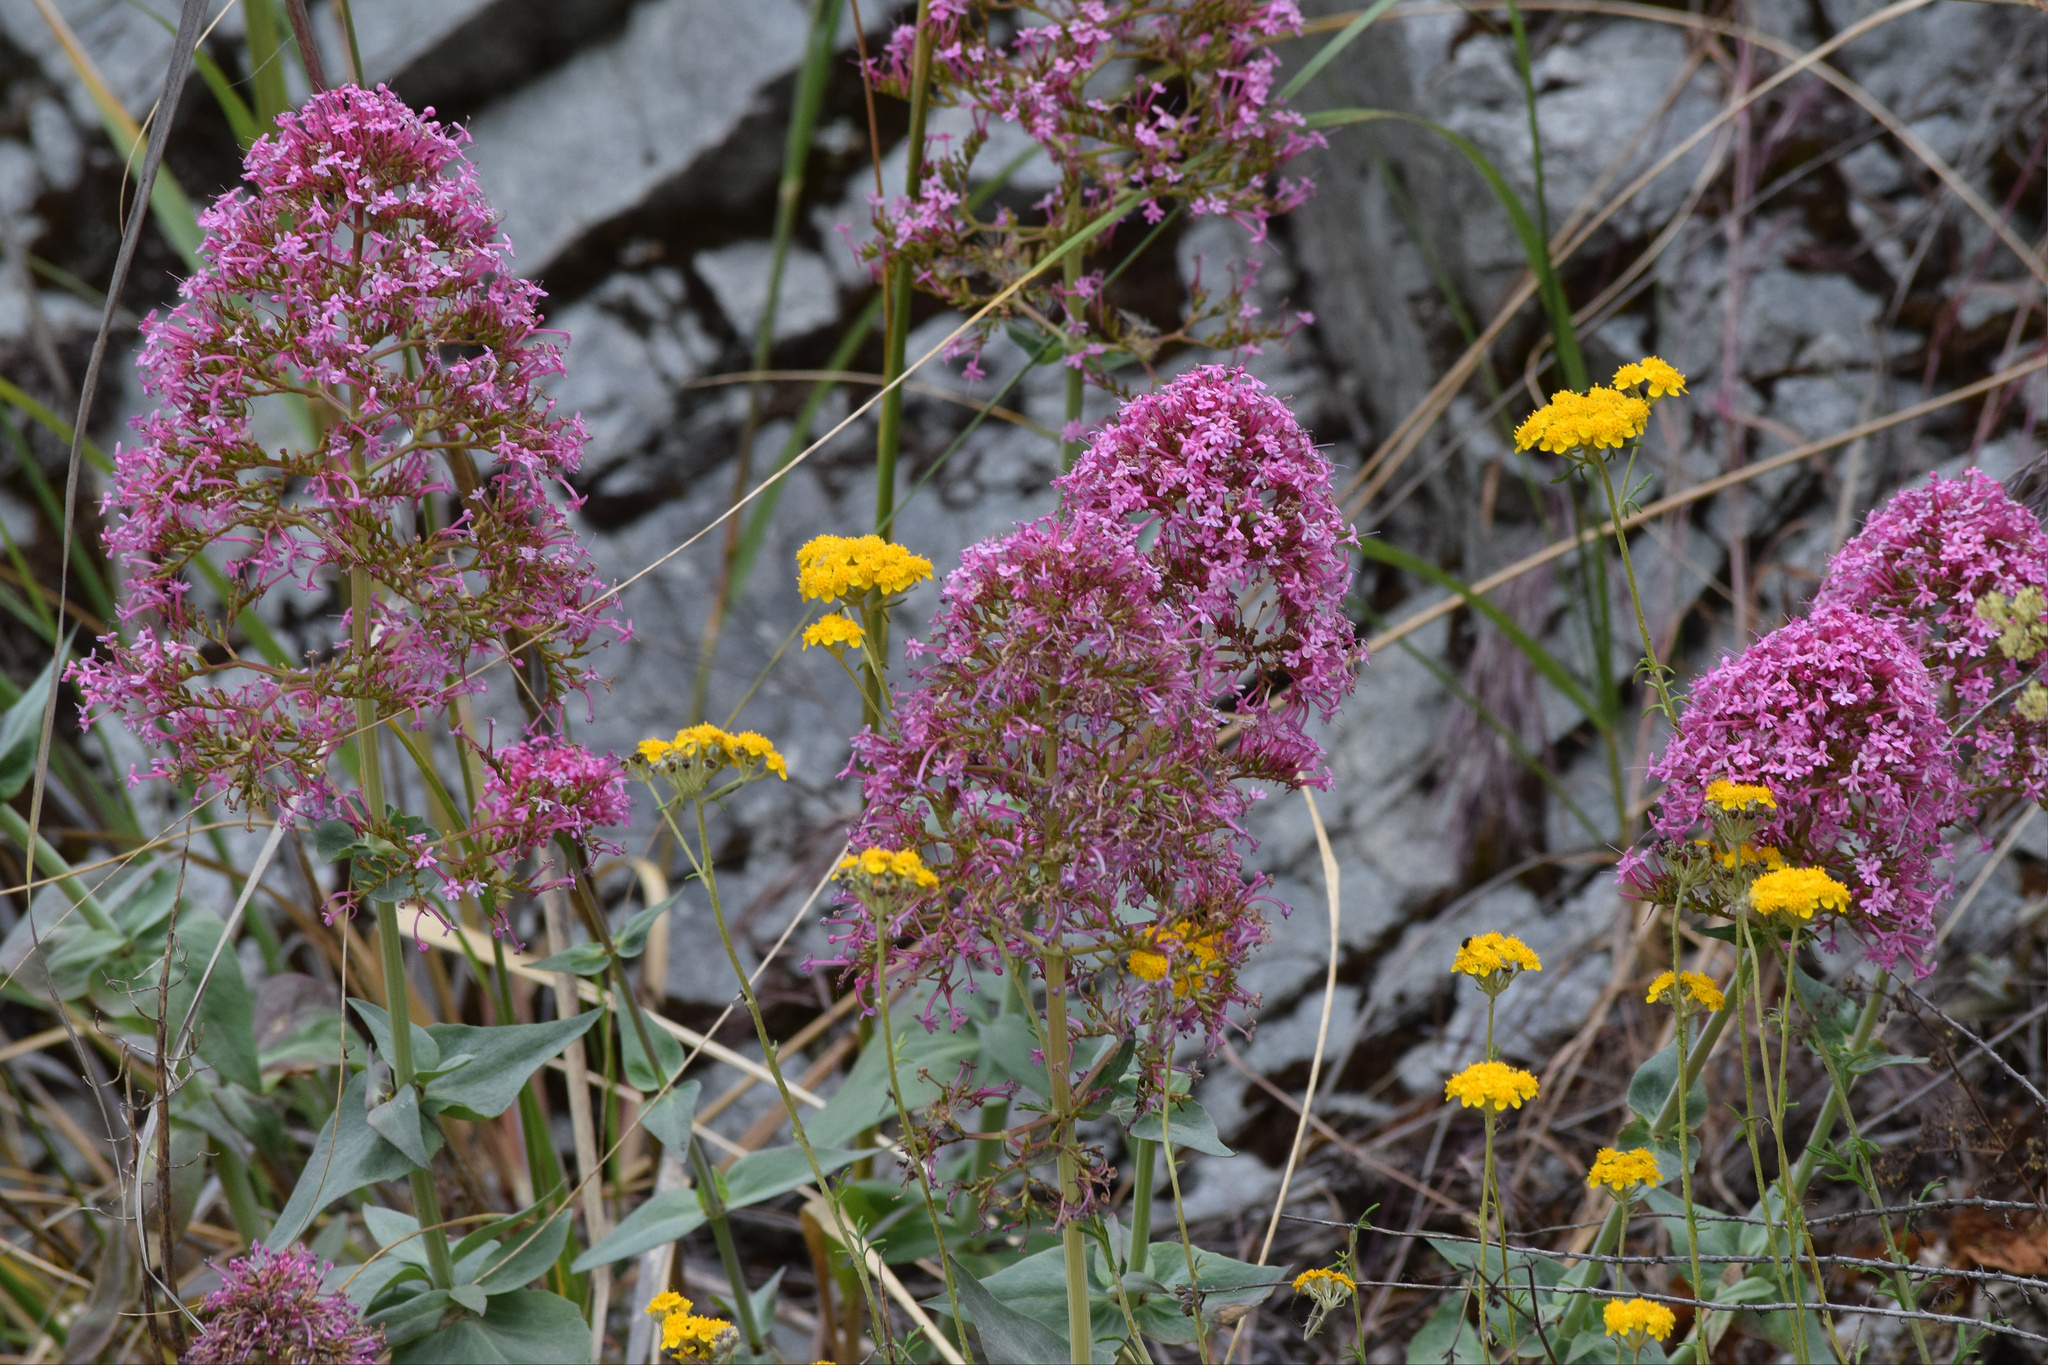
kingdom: Plantae
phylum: Tracheophyta
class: Magnoliopsida
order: Dipsacales
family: Caprifoliaceae
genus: Centranthus
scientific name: Centranthus ruber
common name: Red valerian
